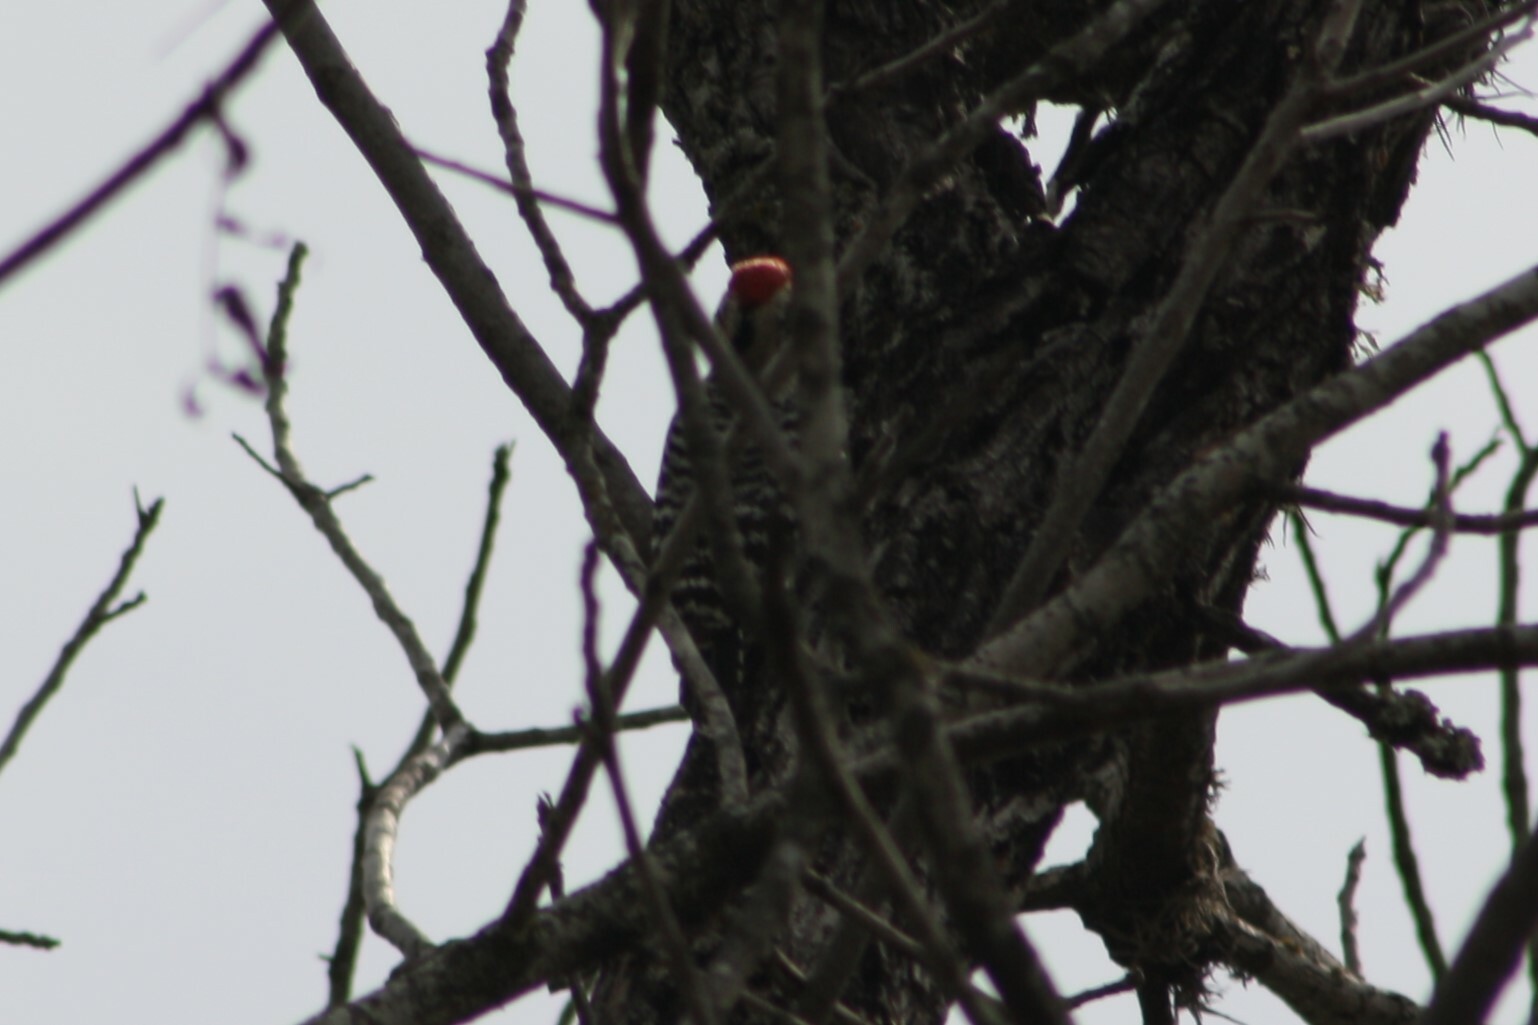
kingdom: Animalia
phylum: Chordata
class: Aves
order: Piciformes
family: Picidae
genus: Dryobates
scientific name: Dryobates scalaris
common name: Ladder-backed woodpecker
